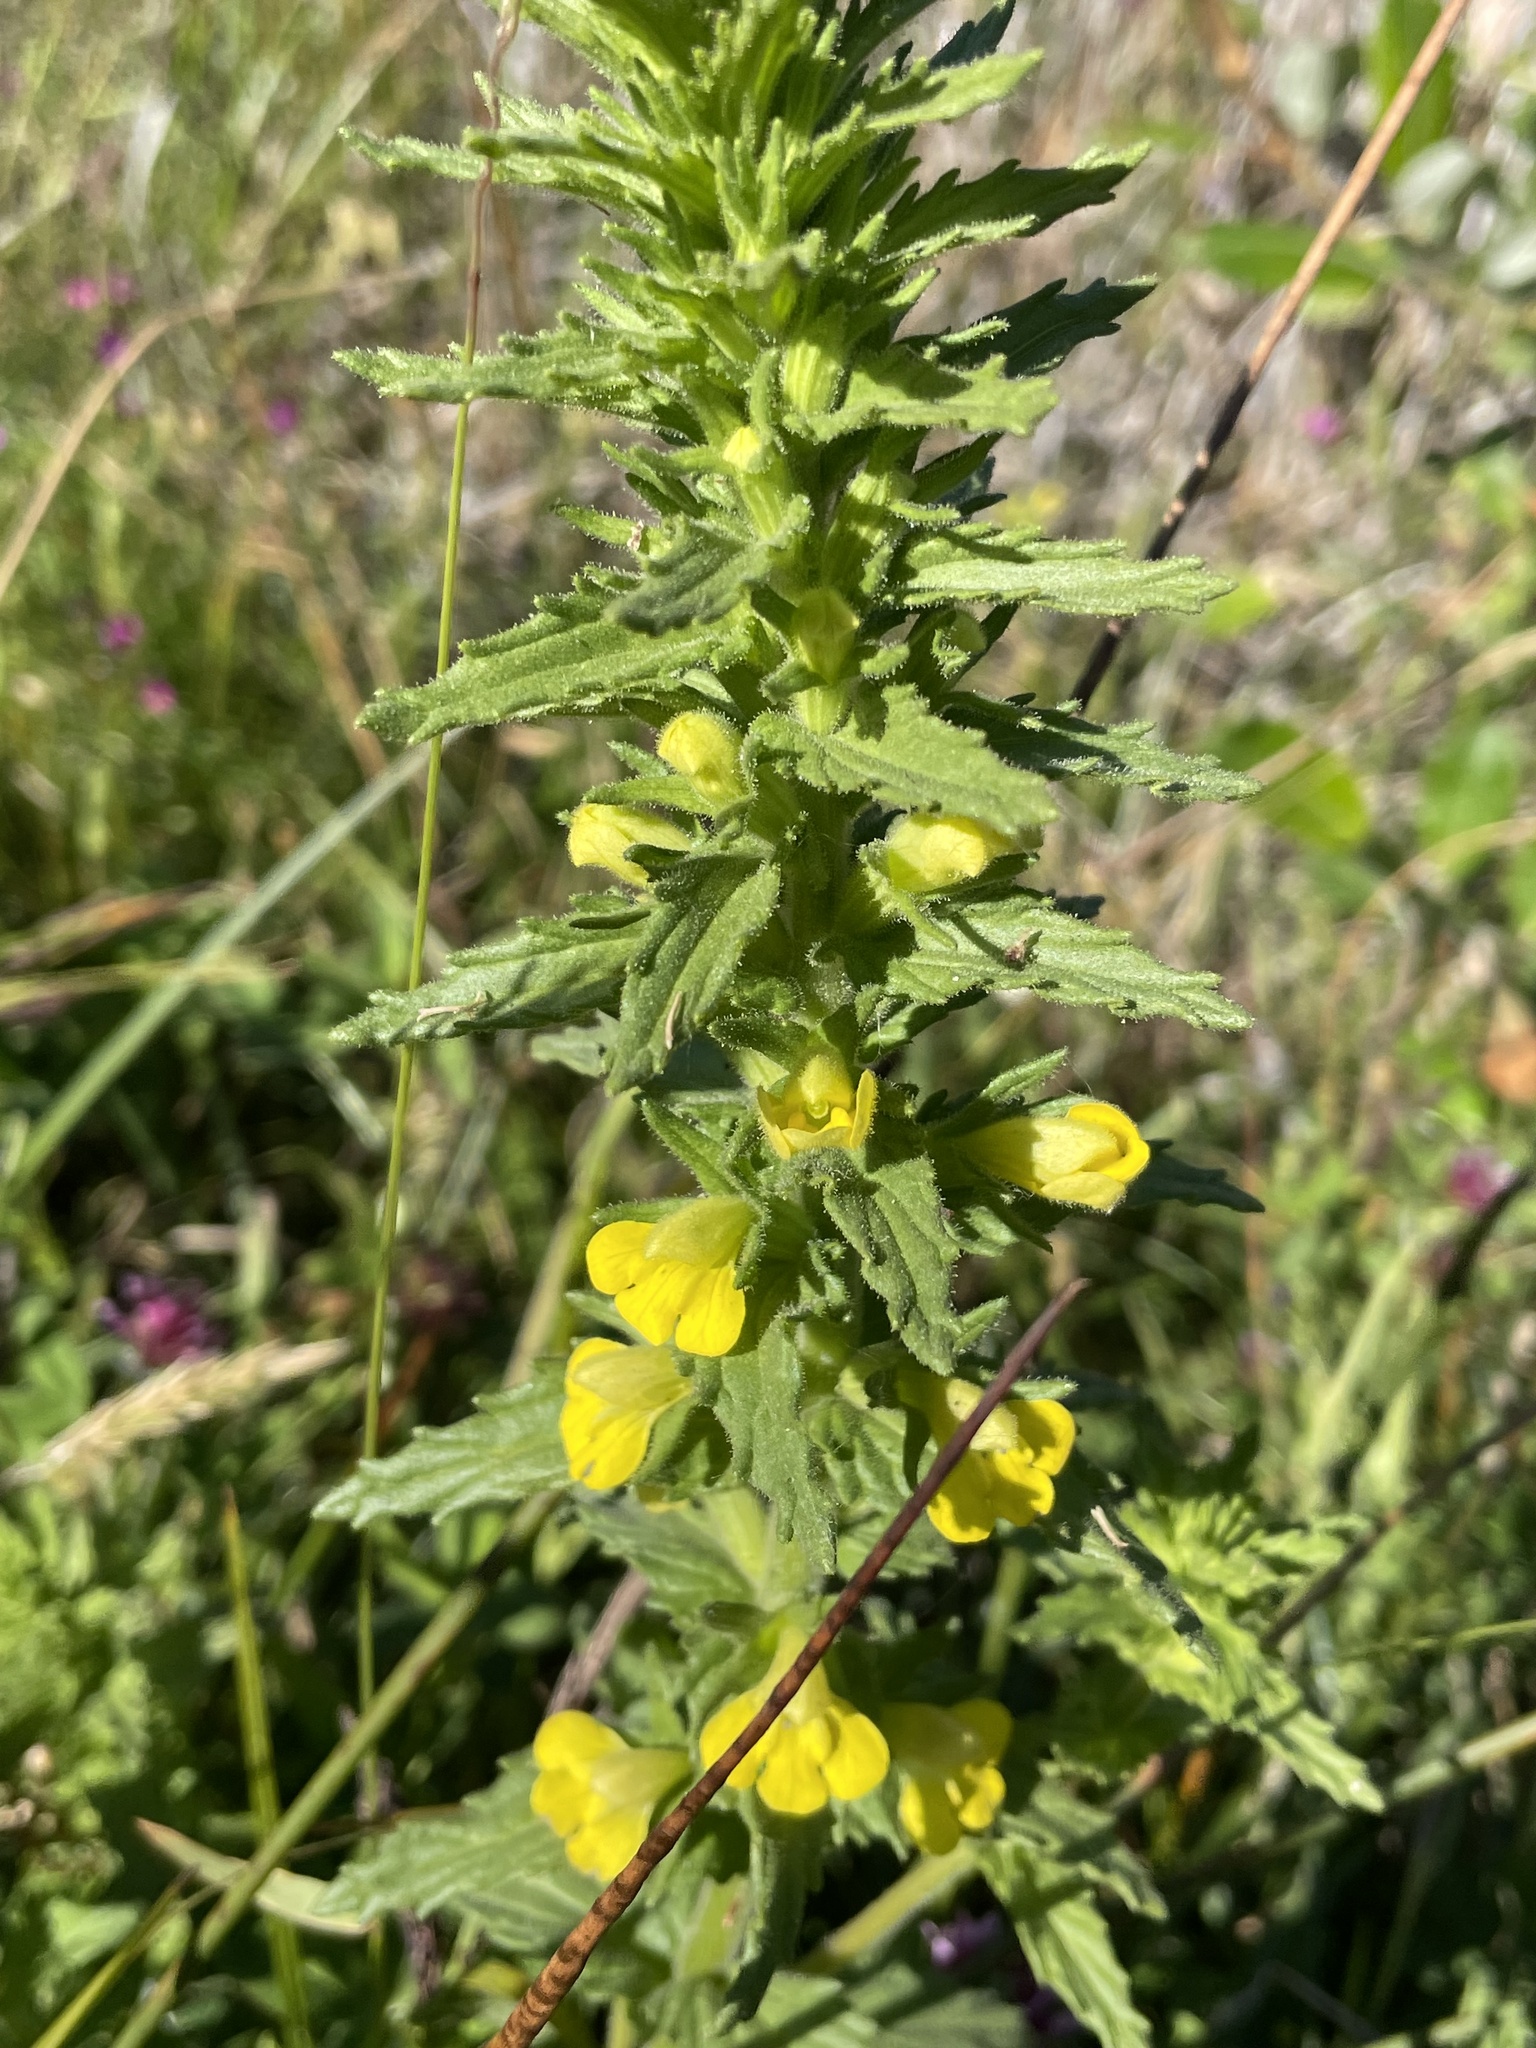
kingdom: Plantae
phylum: Tracheophyta
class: Magnoliopsida
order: Lamiales
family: Orobanchaceae
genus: Bellardia
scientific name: Bellardia viscosa
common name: Sticky parentucellia
